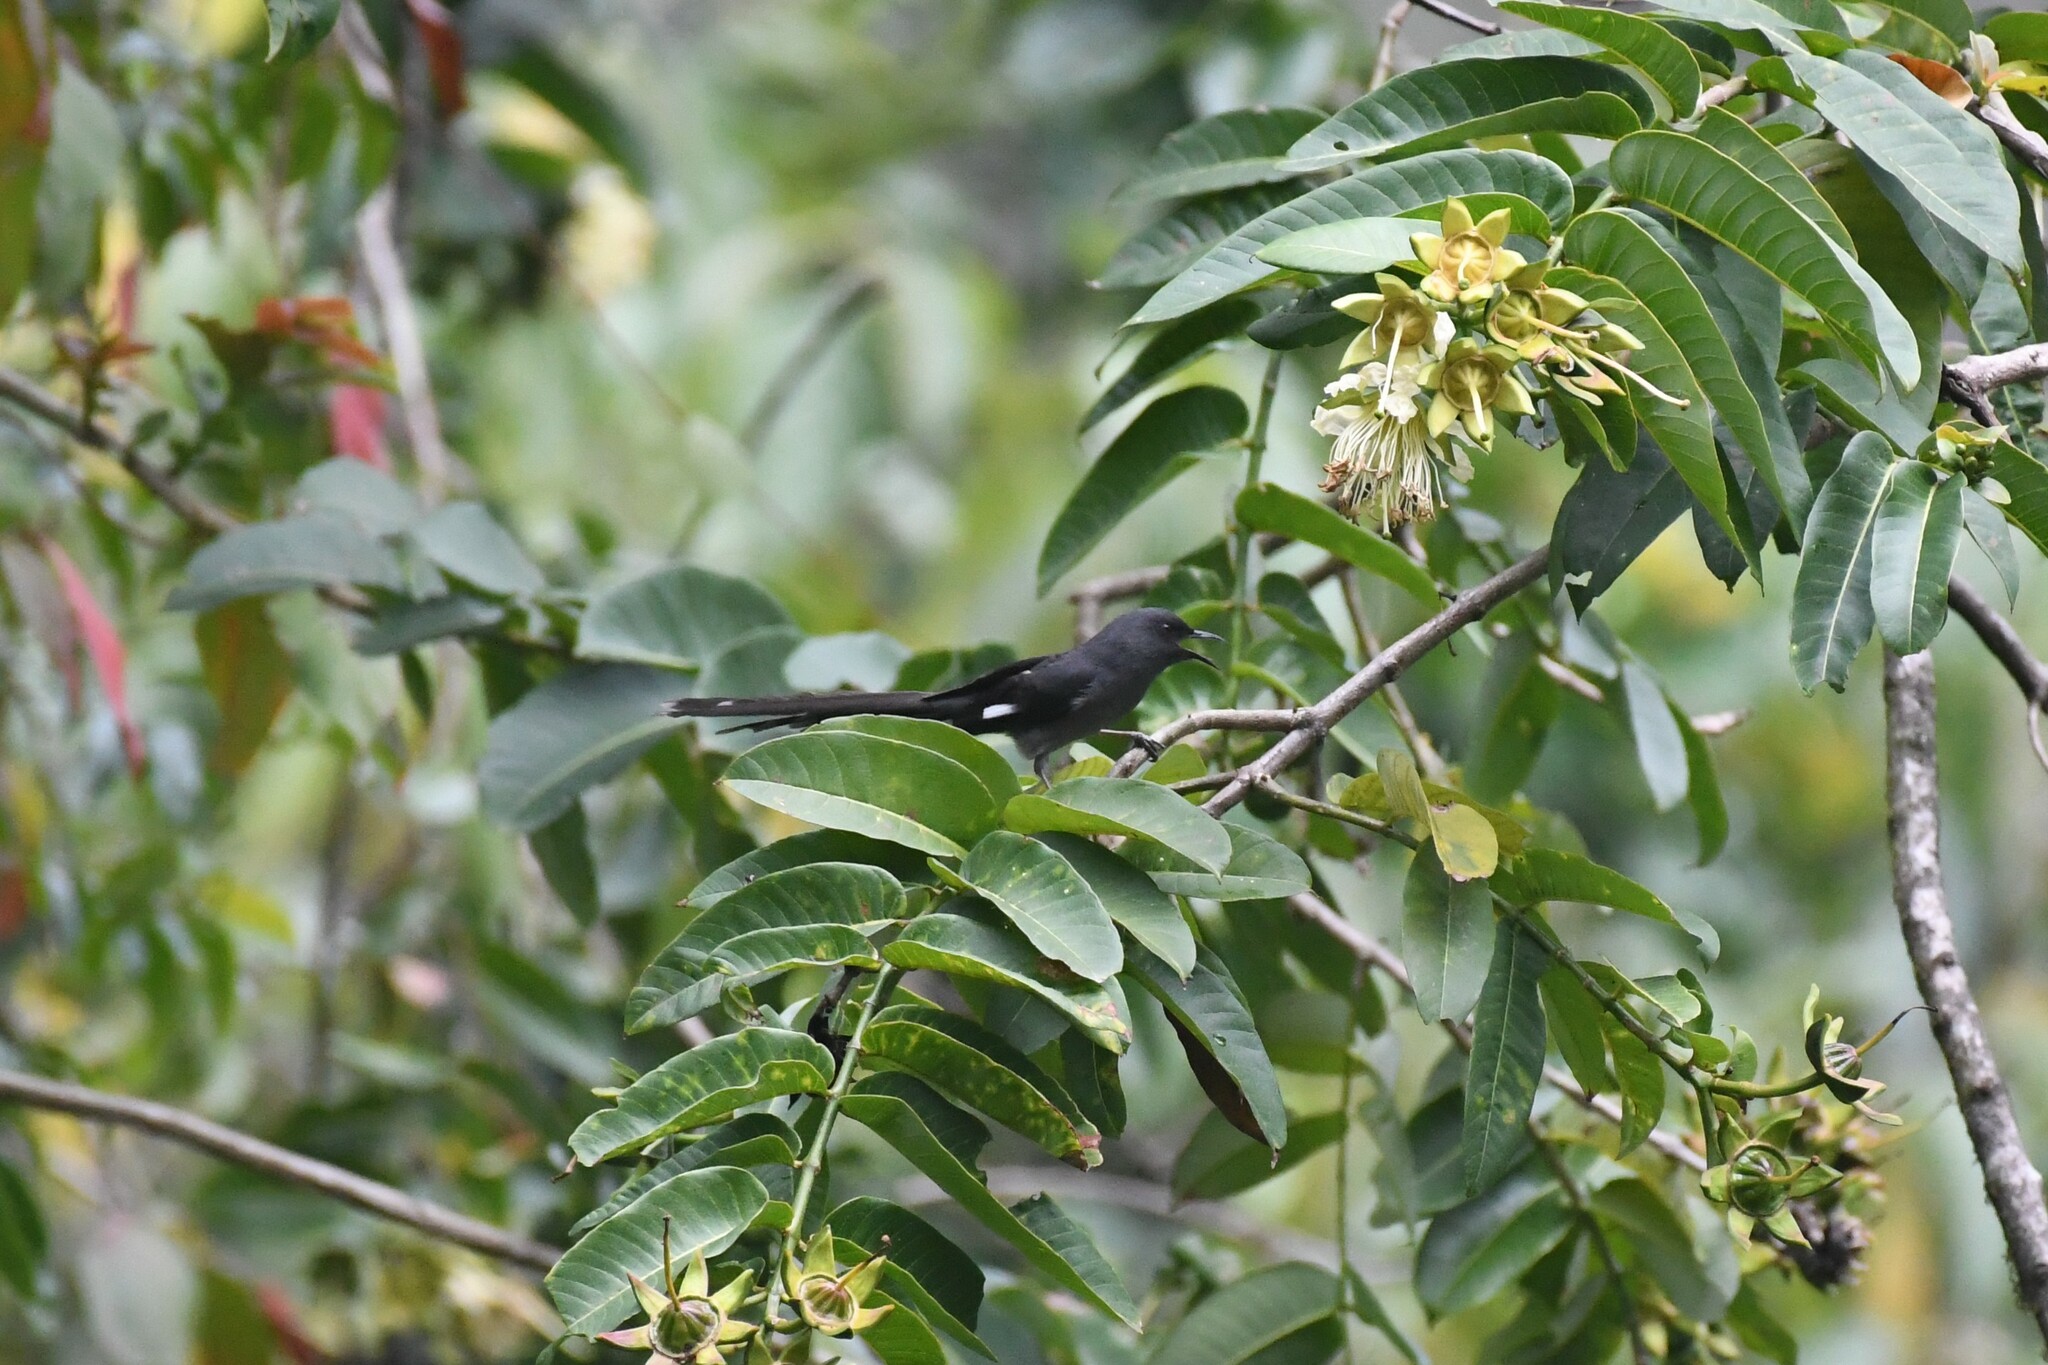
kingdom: Animalia
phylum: Chordata
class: Aves
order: Passeriformes
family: Leiothrichidae
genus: Heterophasia
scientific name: Heterophasia picaoides
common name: Long-tailed sibia
